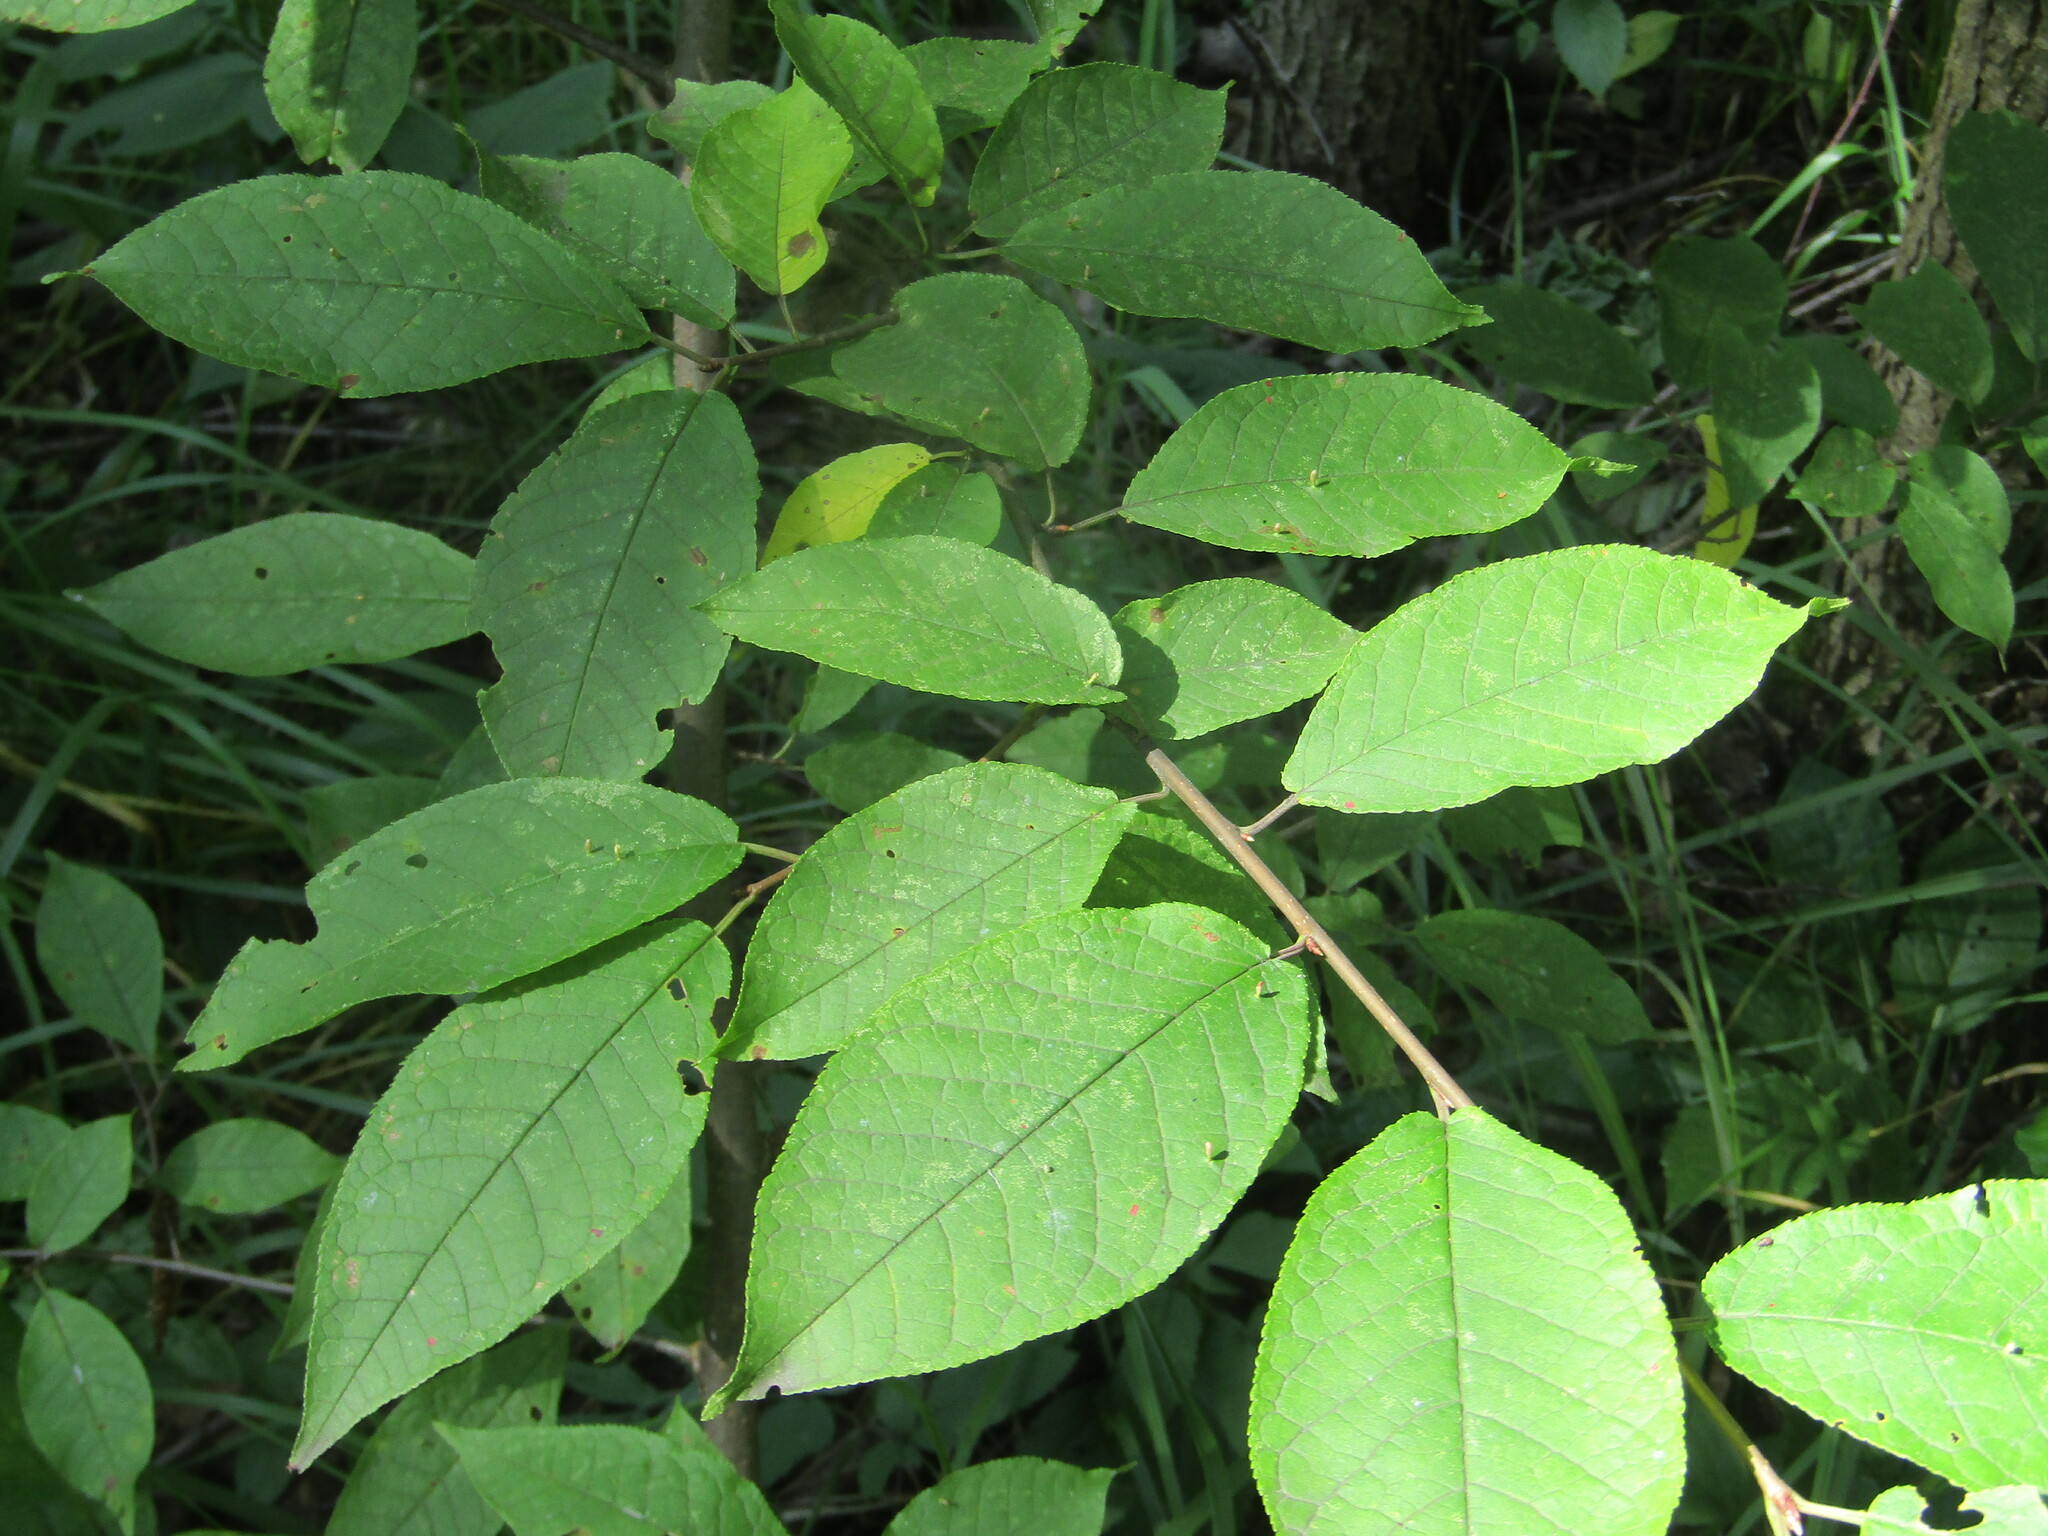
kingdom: Plantae
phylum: Tracheophyta
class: Magnoliopsida
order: Rosales
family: Rosaceae
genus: Prunus
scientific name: Prunus padus
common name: Bird cherry
